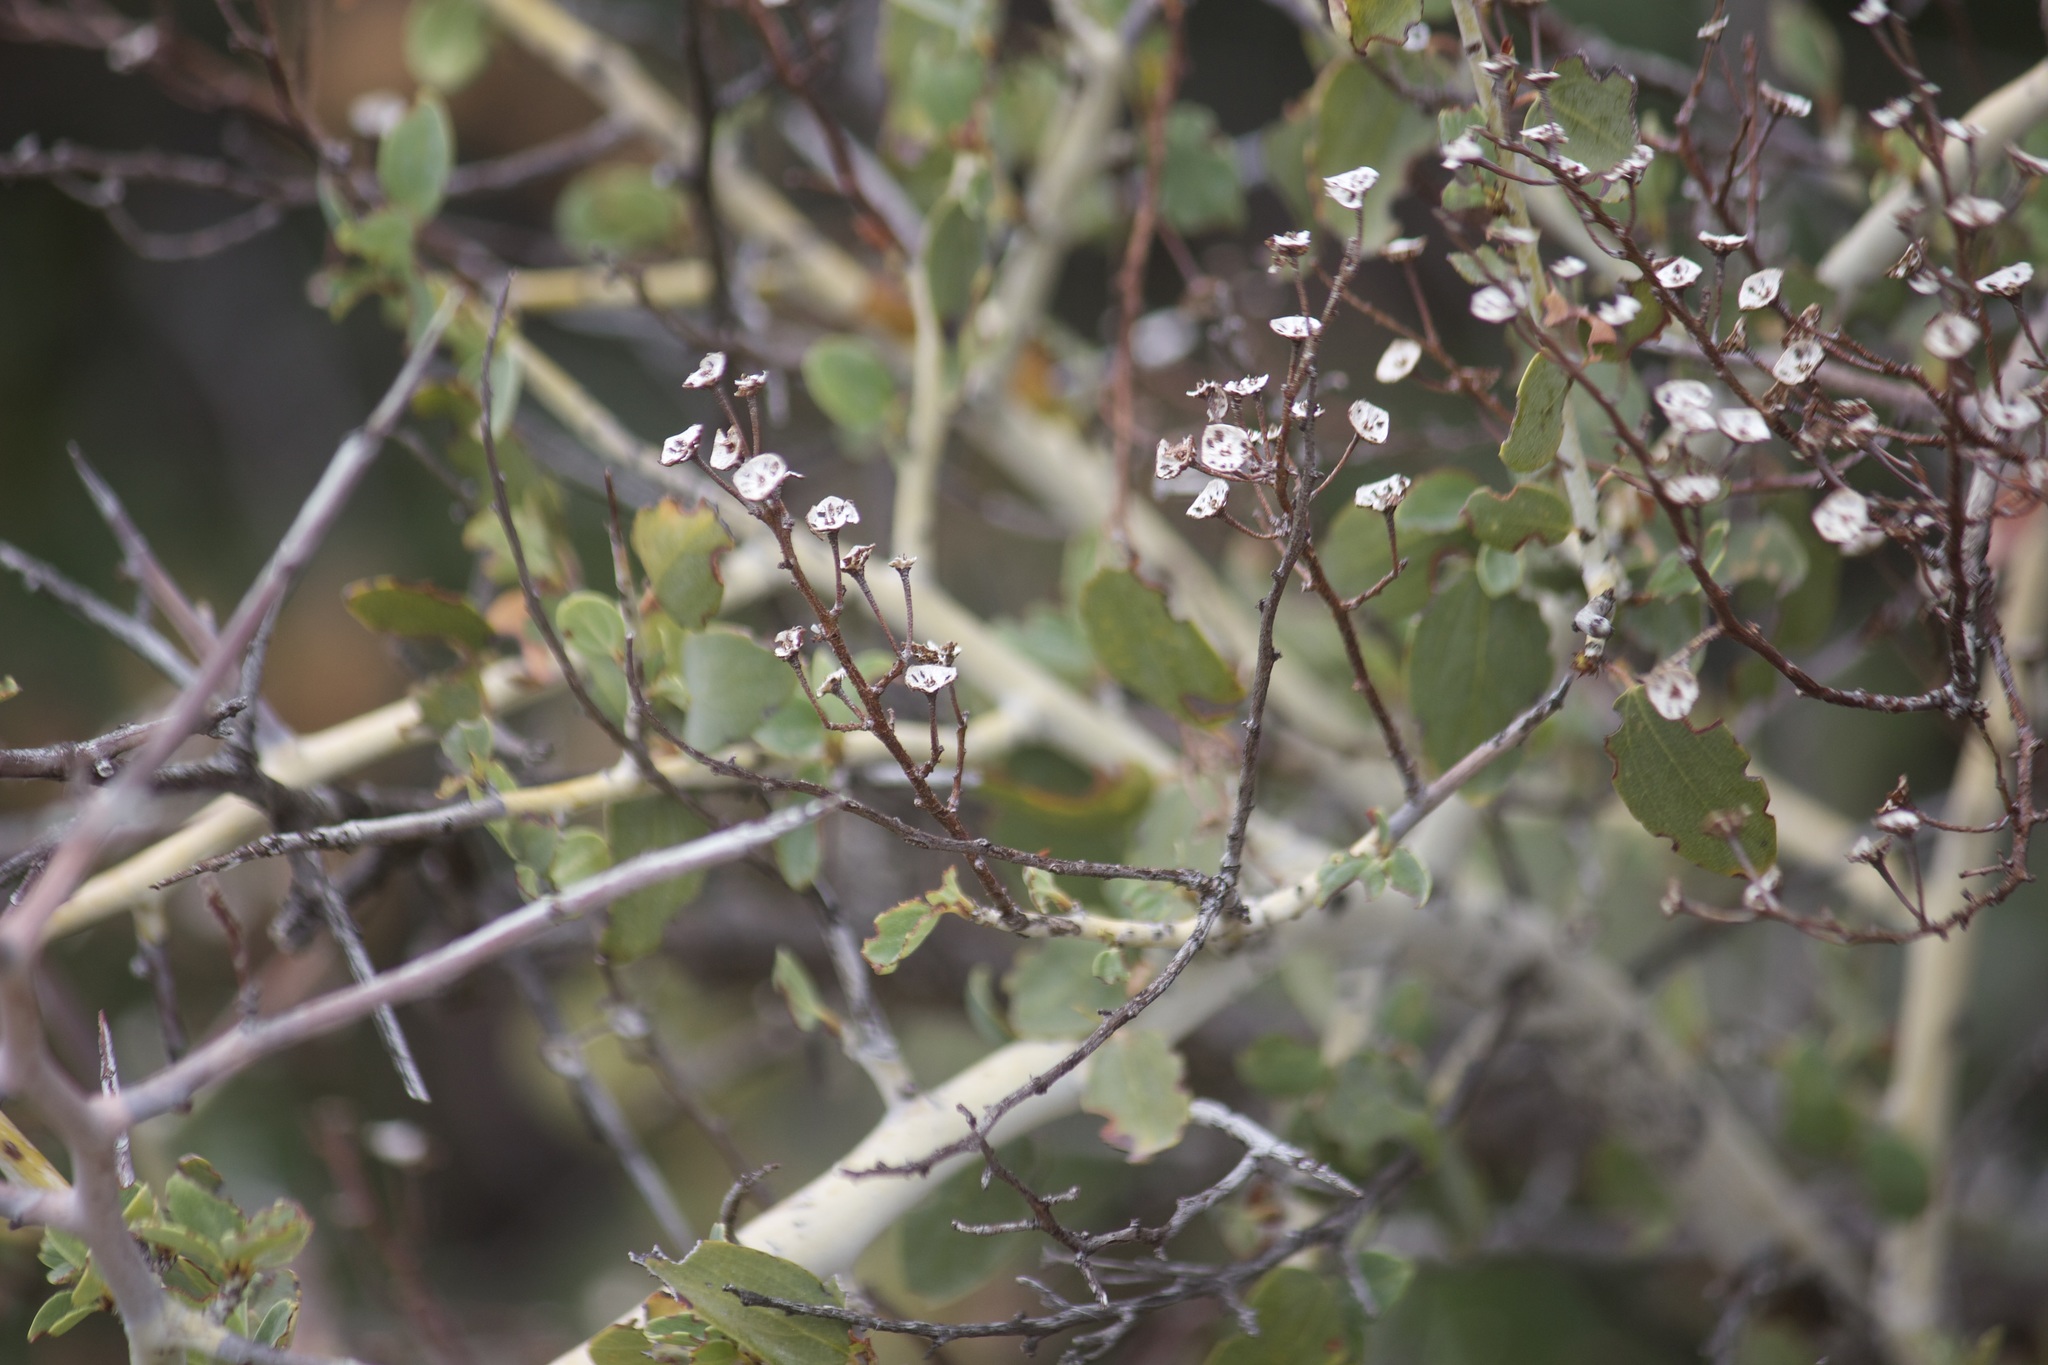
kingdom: Plantae
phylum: Tracheophyta
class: Magnoliopsida
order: Rosales
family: Rhamnaceae
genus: Ceanothus
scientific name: Ceanothus leucodermis
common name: Chaparral whitethorn
